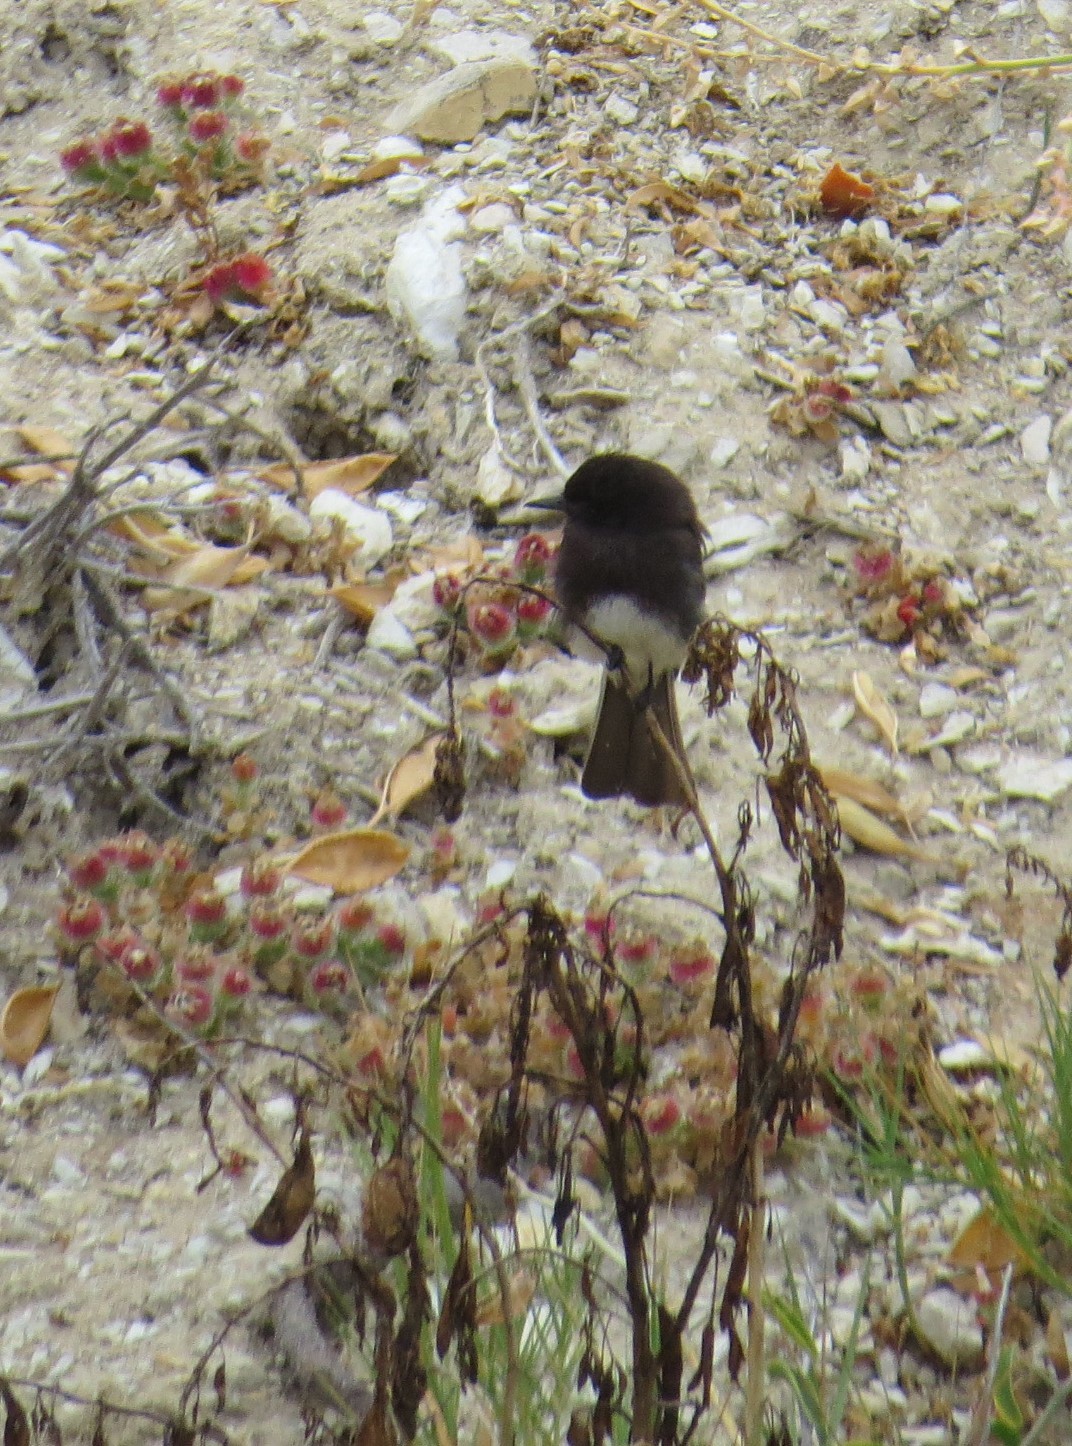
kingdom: Animalia
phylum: Chordata
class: Aves
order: Passeriformes
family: Tyrannidae
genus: Sayornis
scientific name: Sayornis nigricans
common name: Black phoebe
